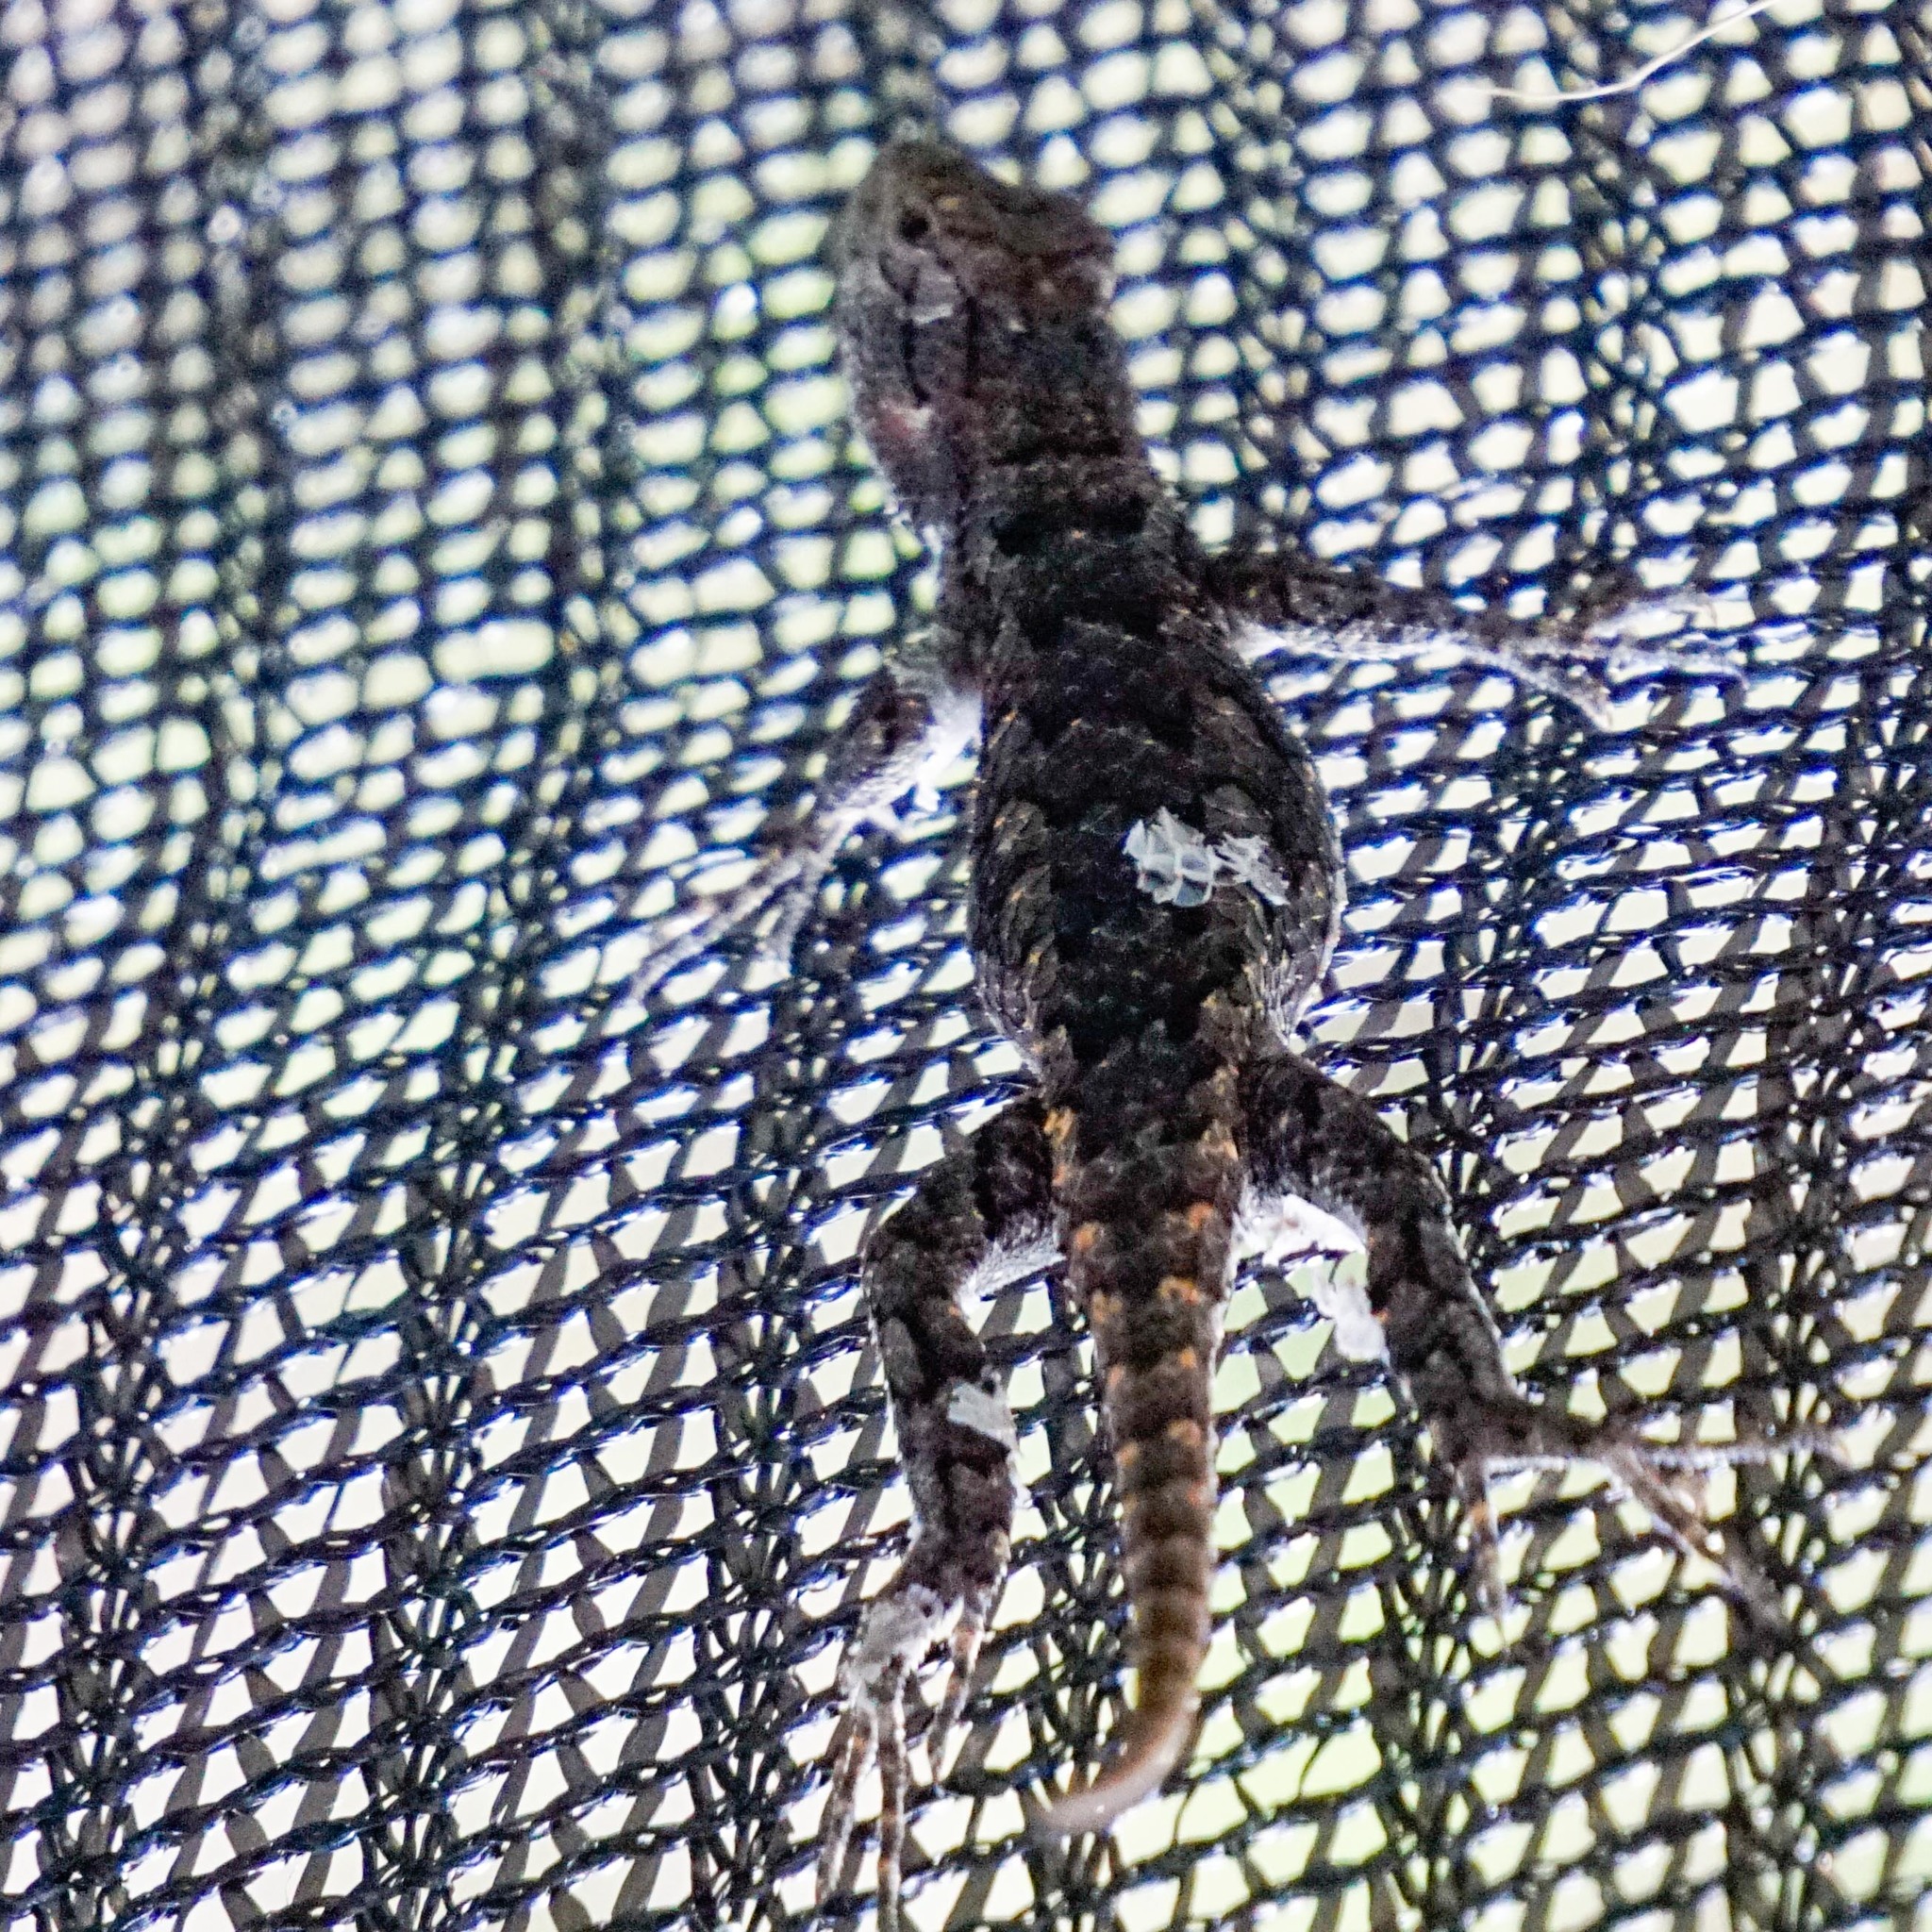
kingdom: Animalia
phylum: Chordata
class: Squamata
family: Phrynosomatidae
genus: Sceloporus
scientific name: Sceloporus olivaceus
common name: Texas spiny lizard
